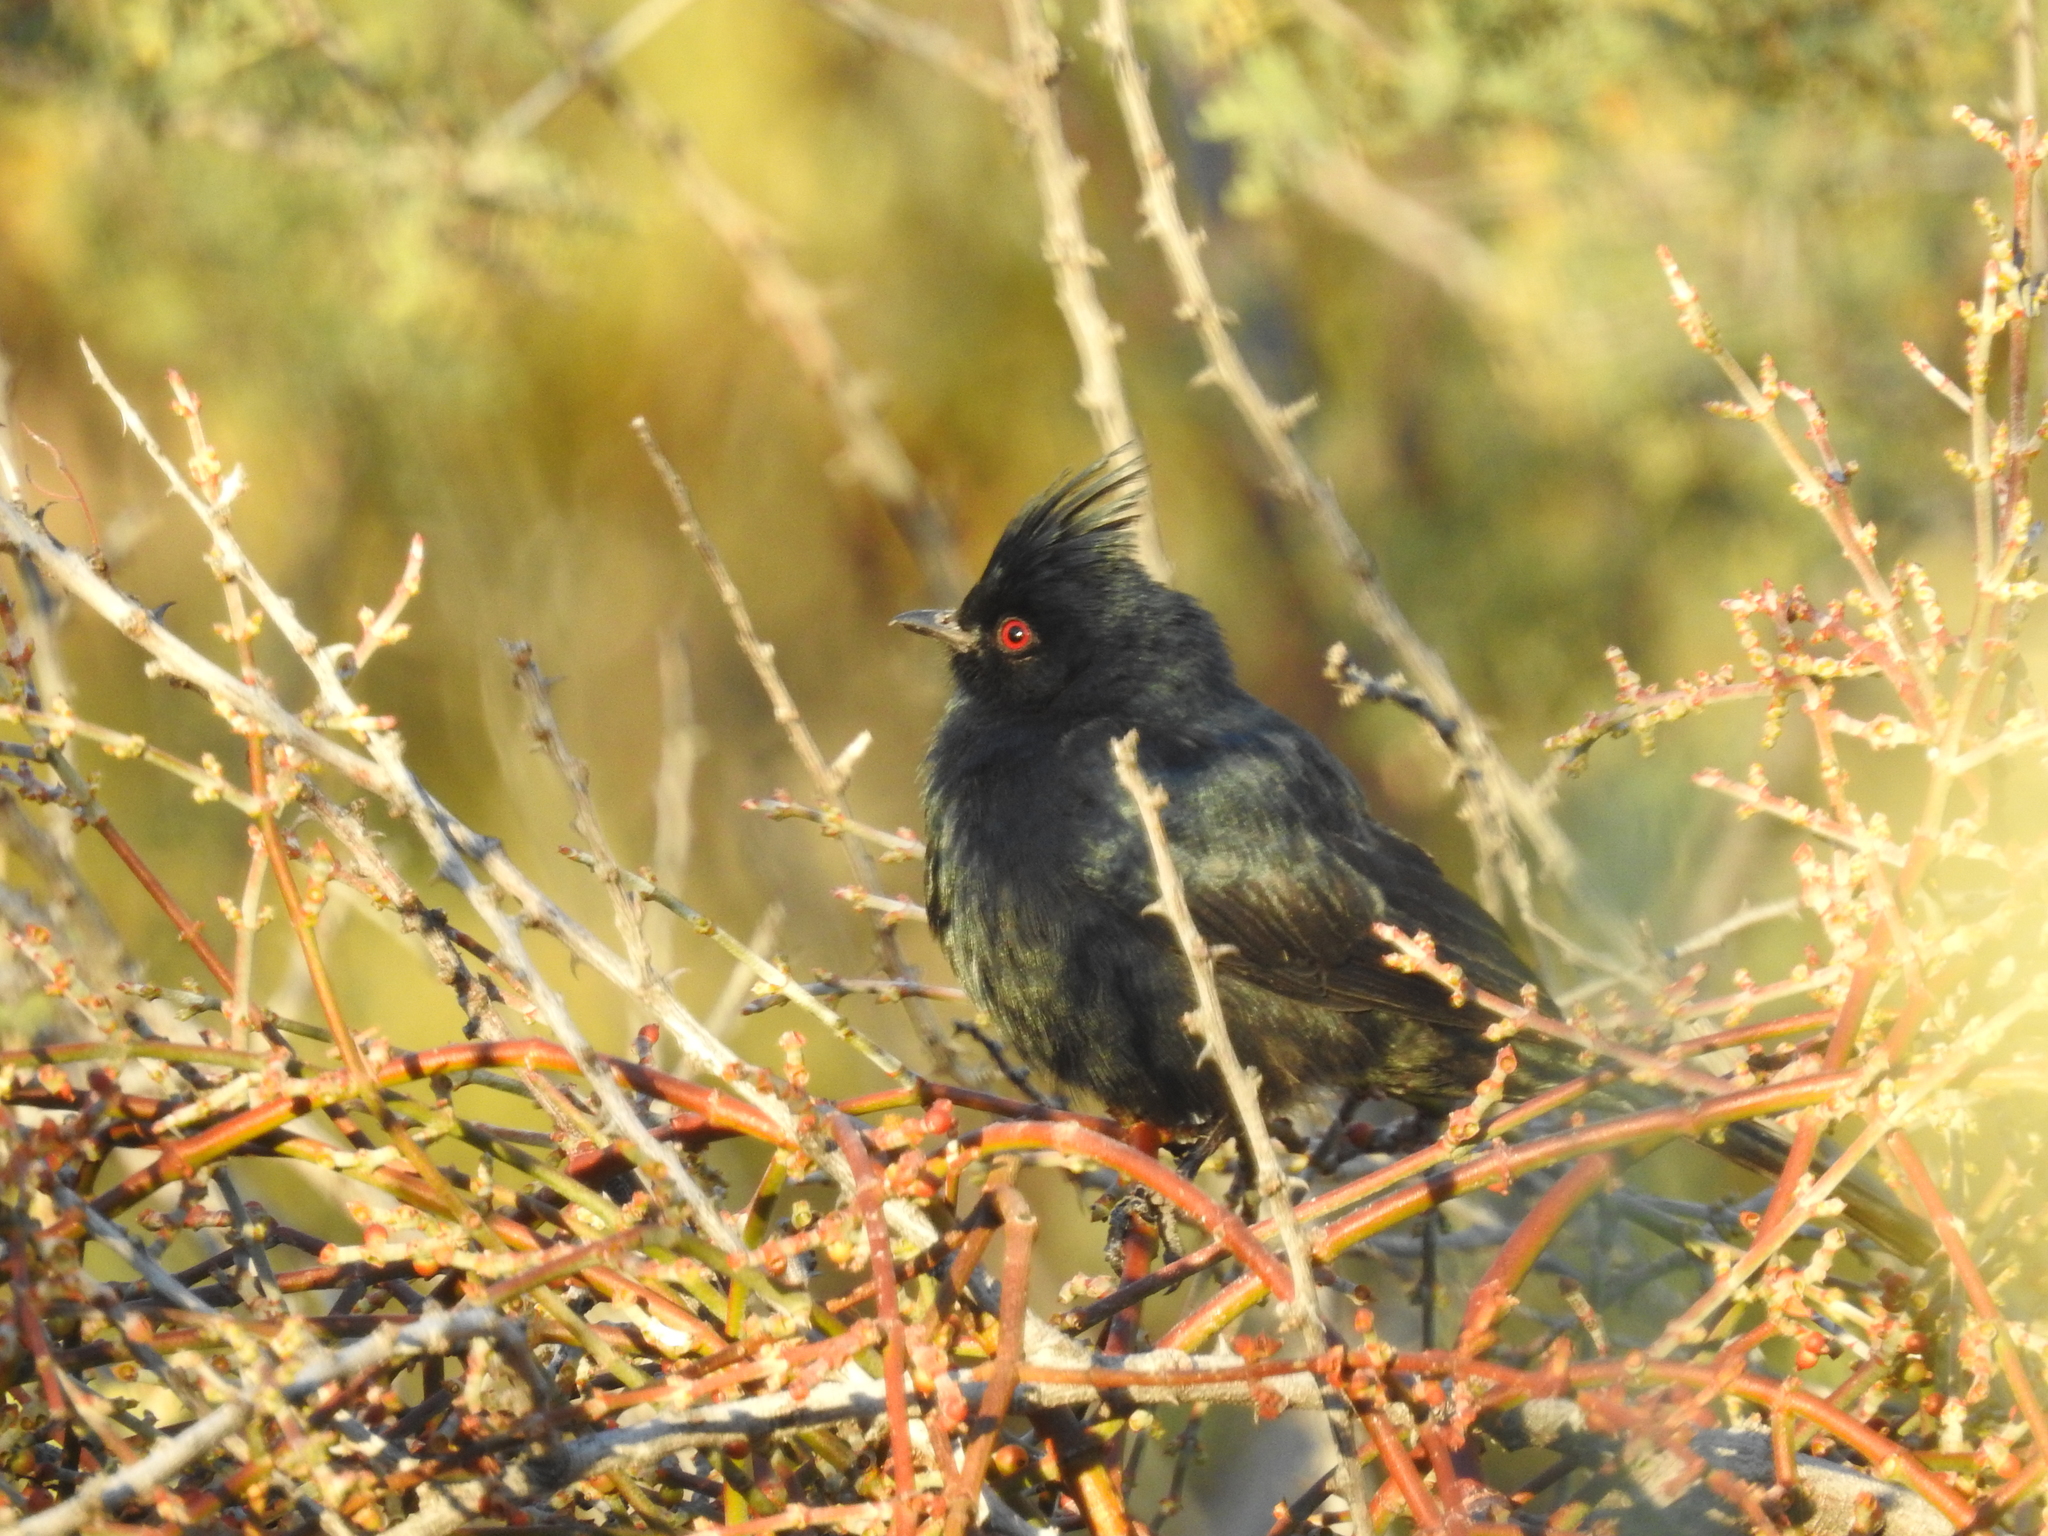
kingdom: Animalia
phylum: Chordata
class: Aves
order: Passeriformes
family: Ptilogonatidae
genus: Phainopepla
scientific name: Phainopepla nitens
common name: Phainopepla
